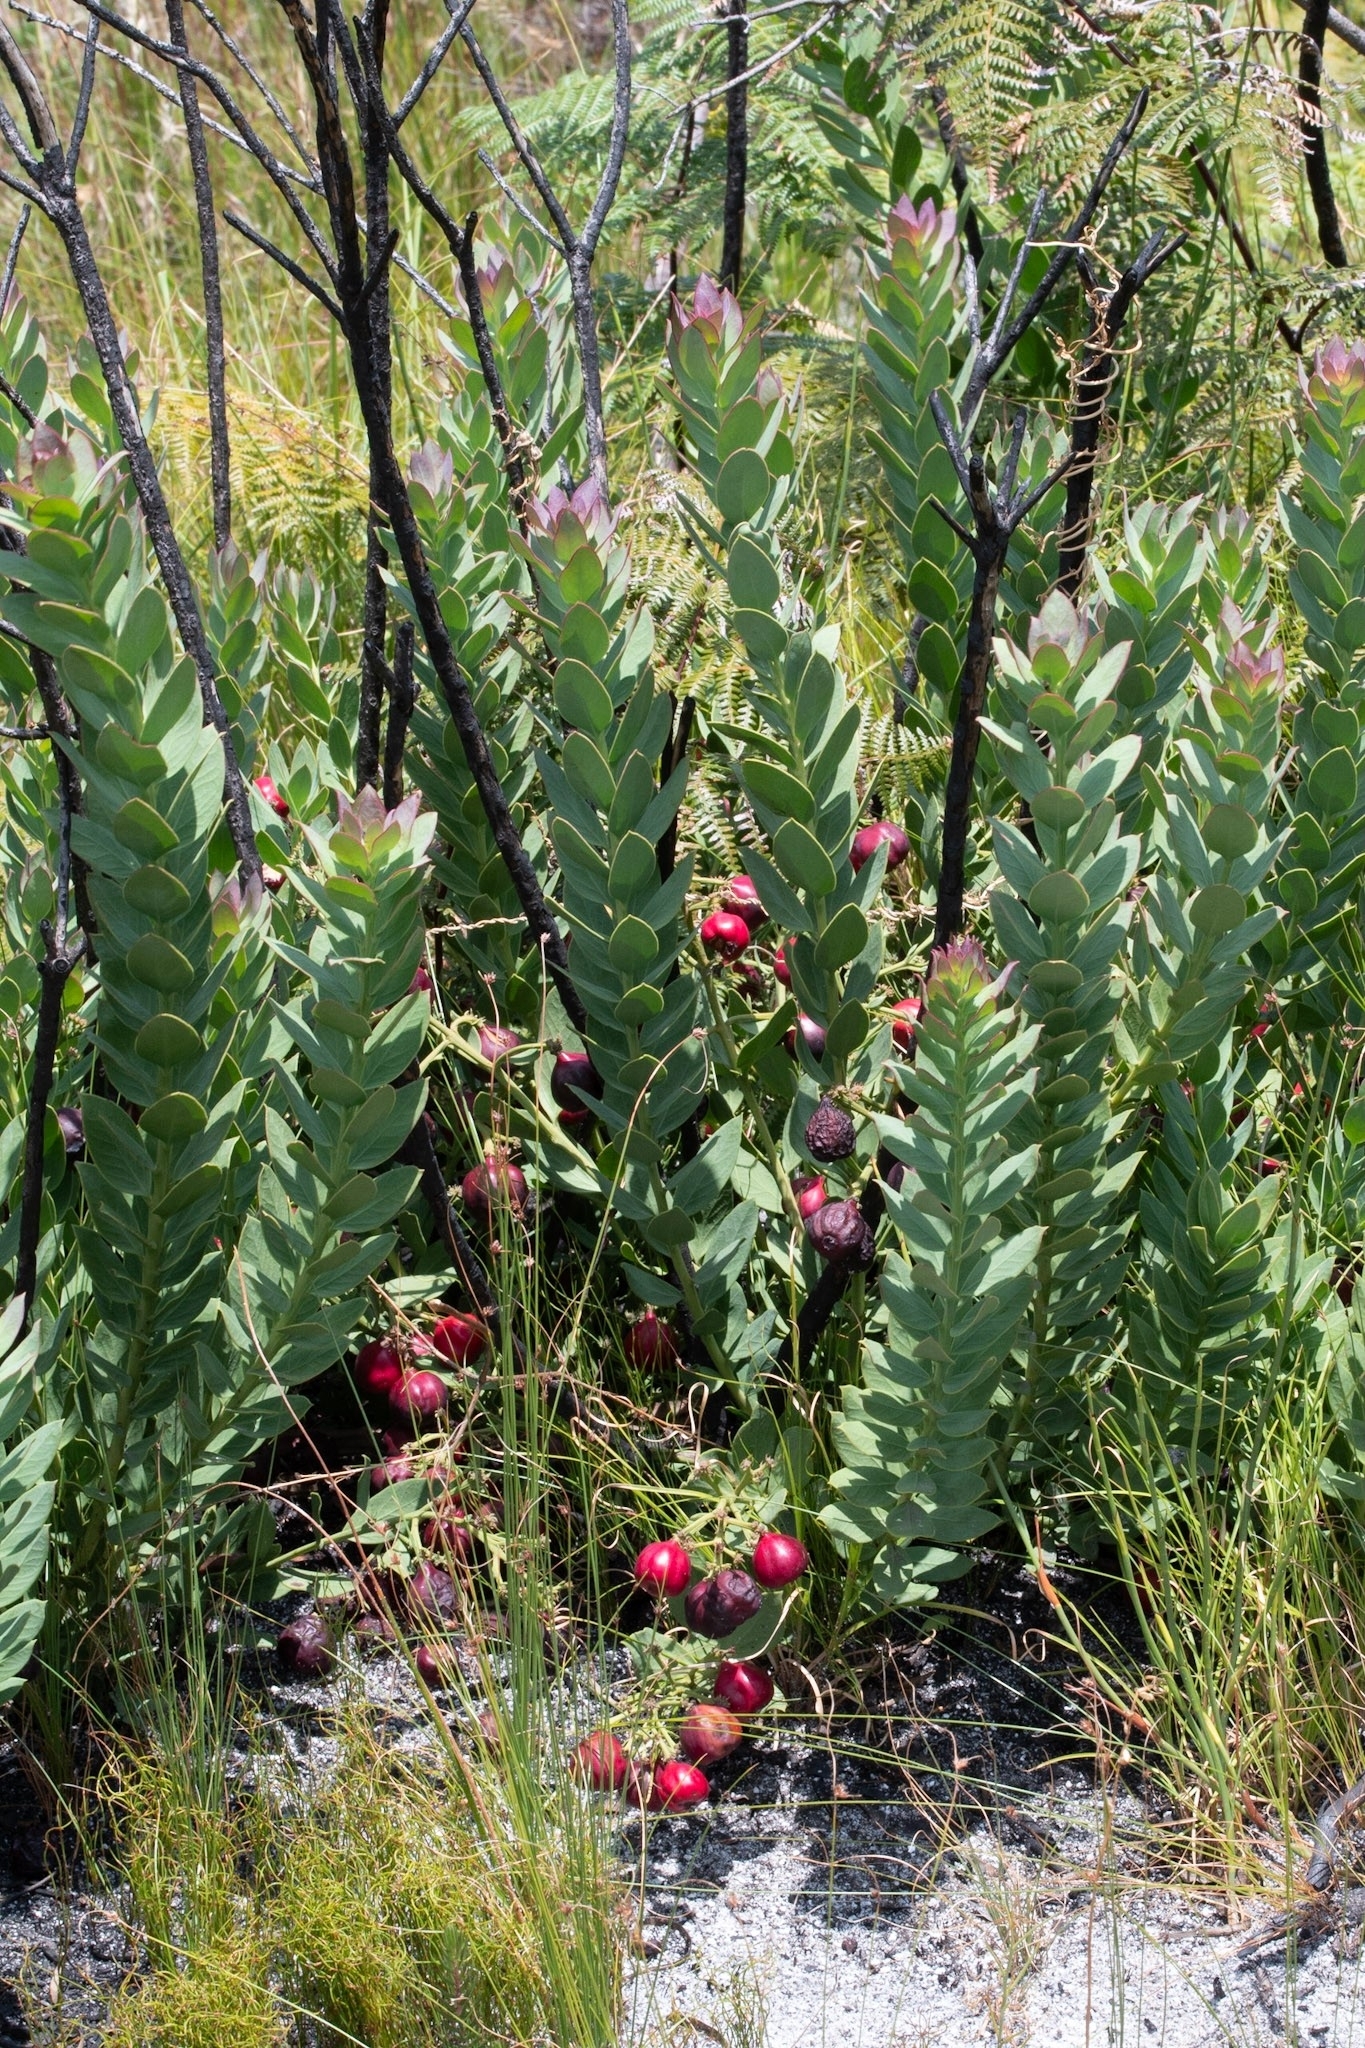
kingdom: Plantae
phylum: Tracheophyta
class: Magnoliopsida
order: Santalales
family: Santalaceae
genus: Osyris
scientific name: Osyris speciosa
